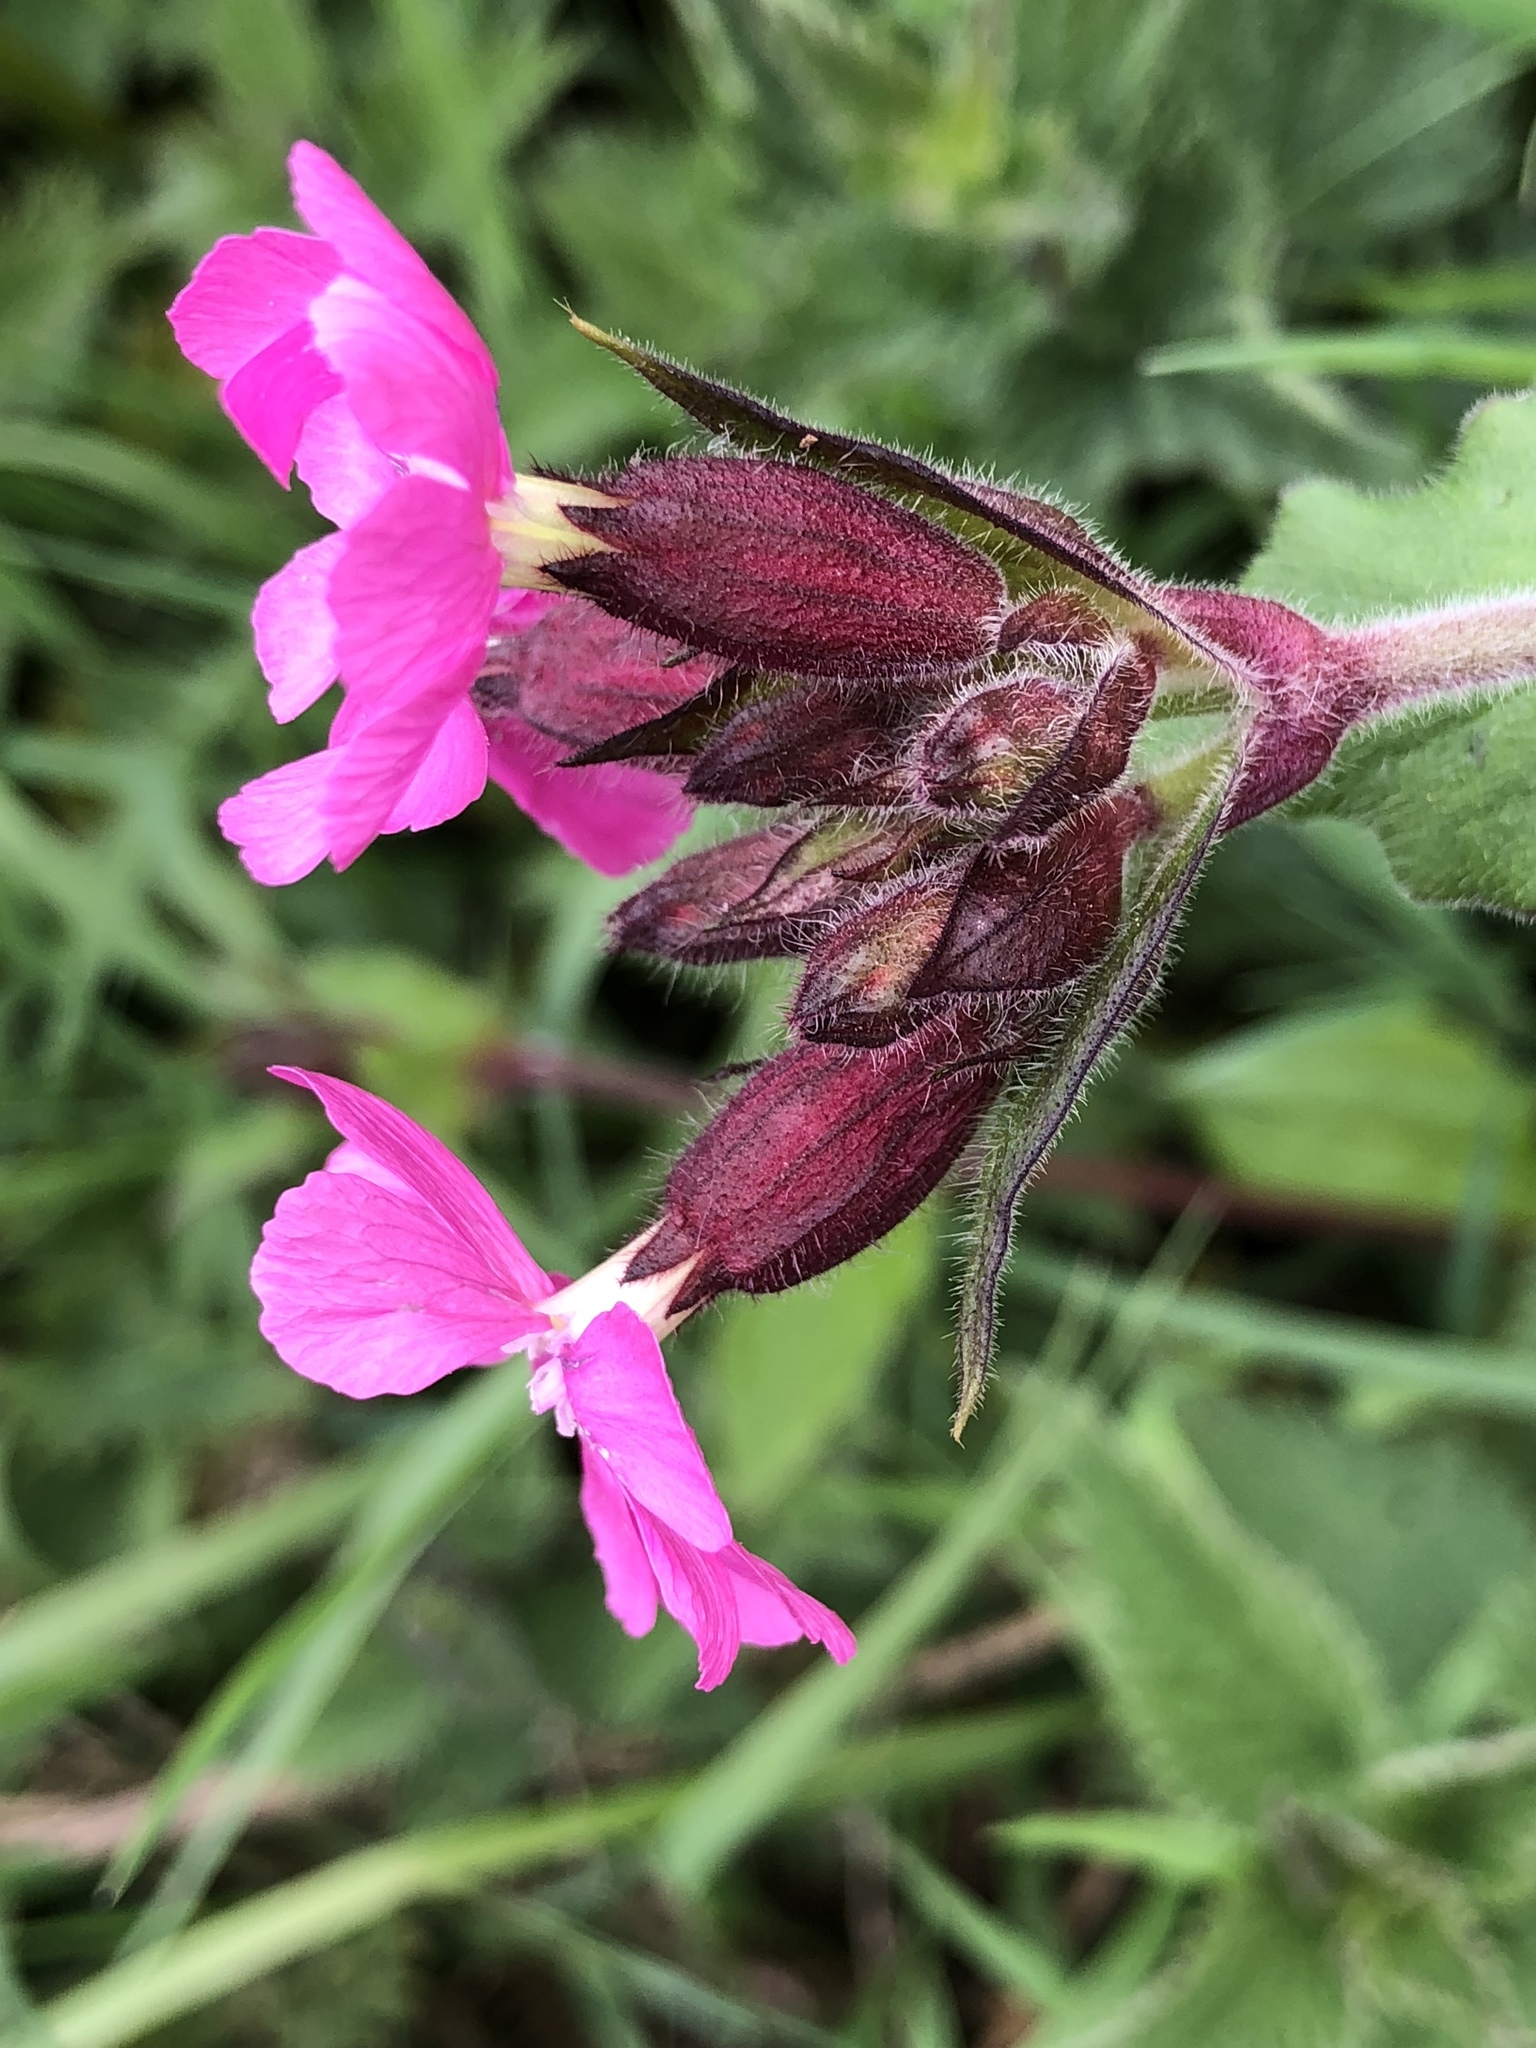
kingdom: Plantae
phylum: Tracheophyta
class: Magnoliopsida
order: Caryophyllales
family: Caryophyllaceae
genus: Silene
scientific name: Silene dioica
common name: Red campion
